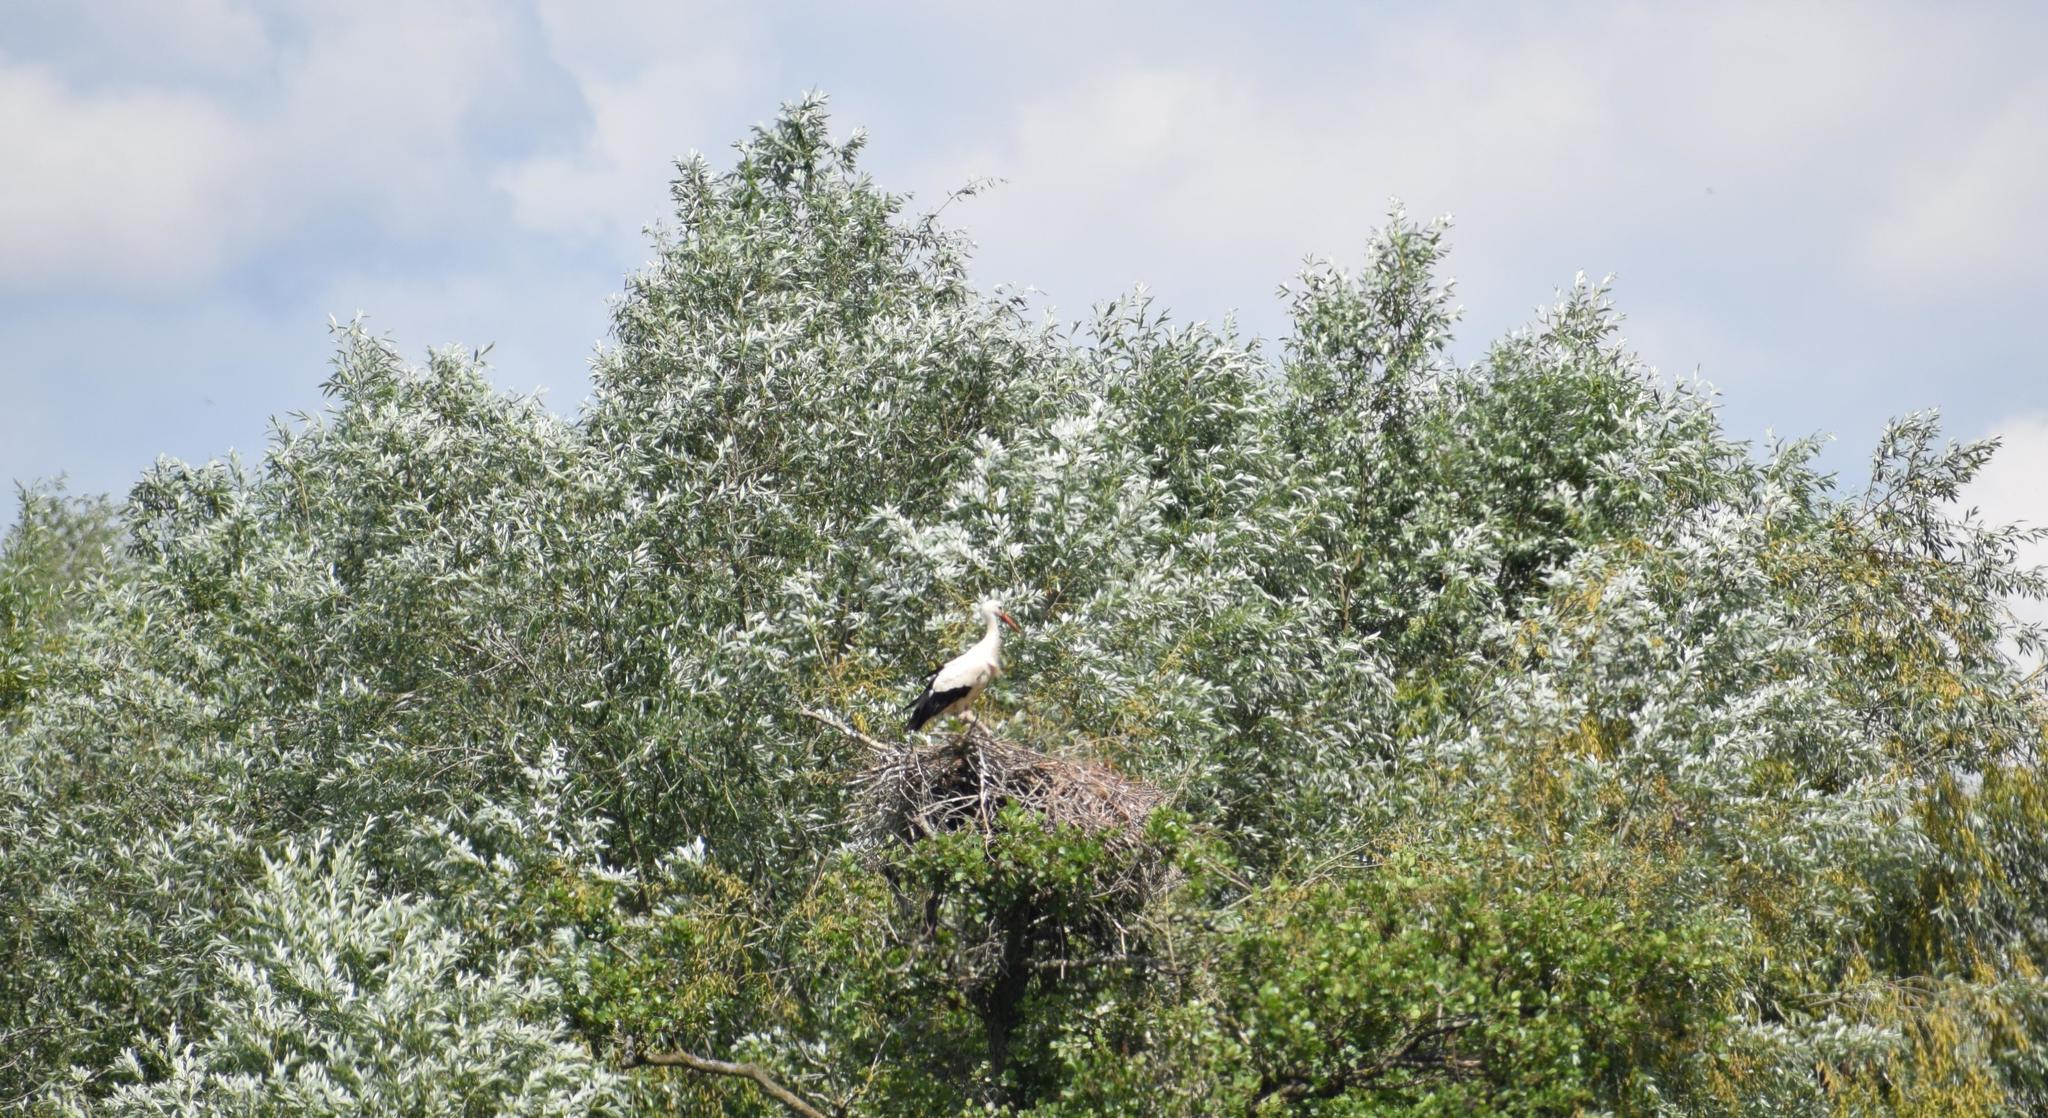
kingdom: Animalia
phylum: Chordata
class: Aves
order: Ciconiiformes
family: Ciconiidae
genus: Ciconia
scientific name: Ciconia ciconia
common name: White stork
